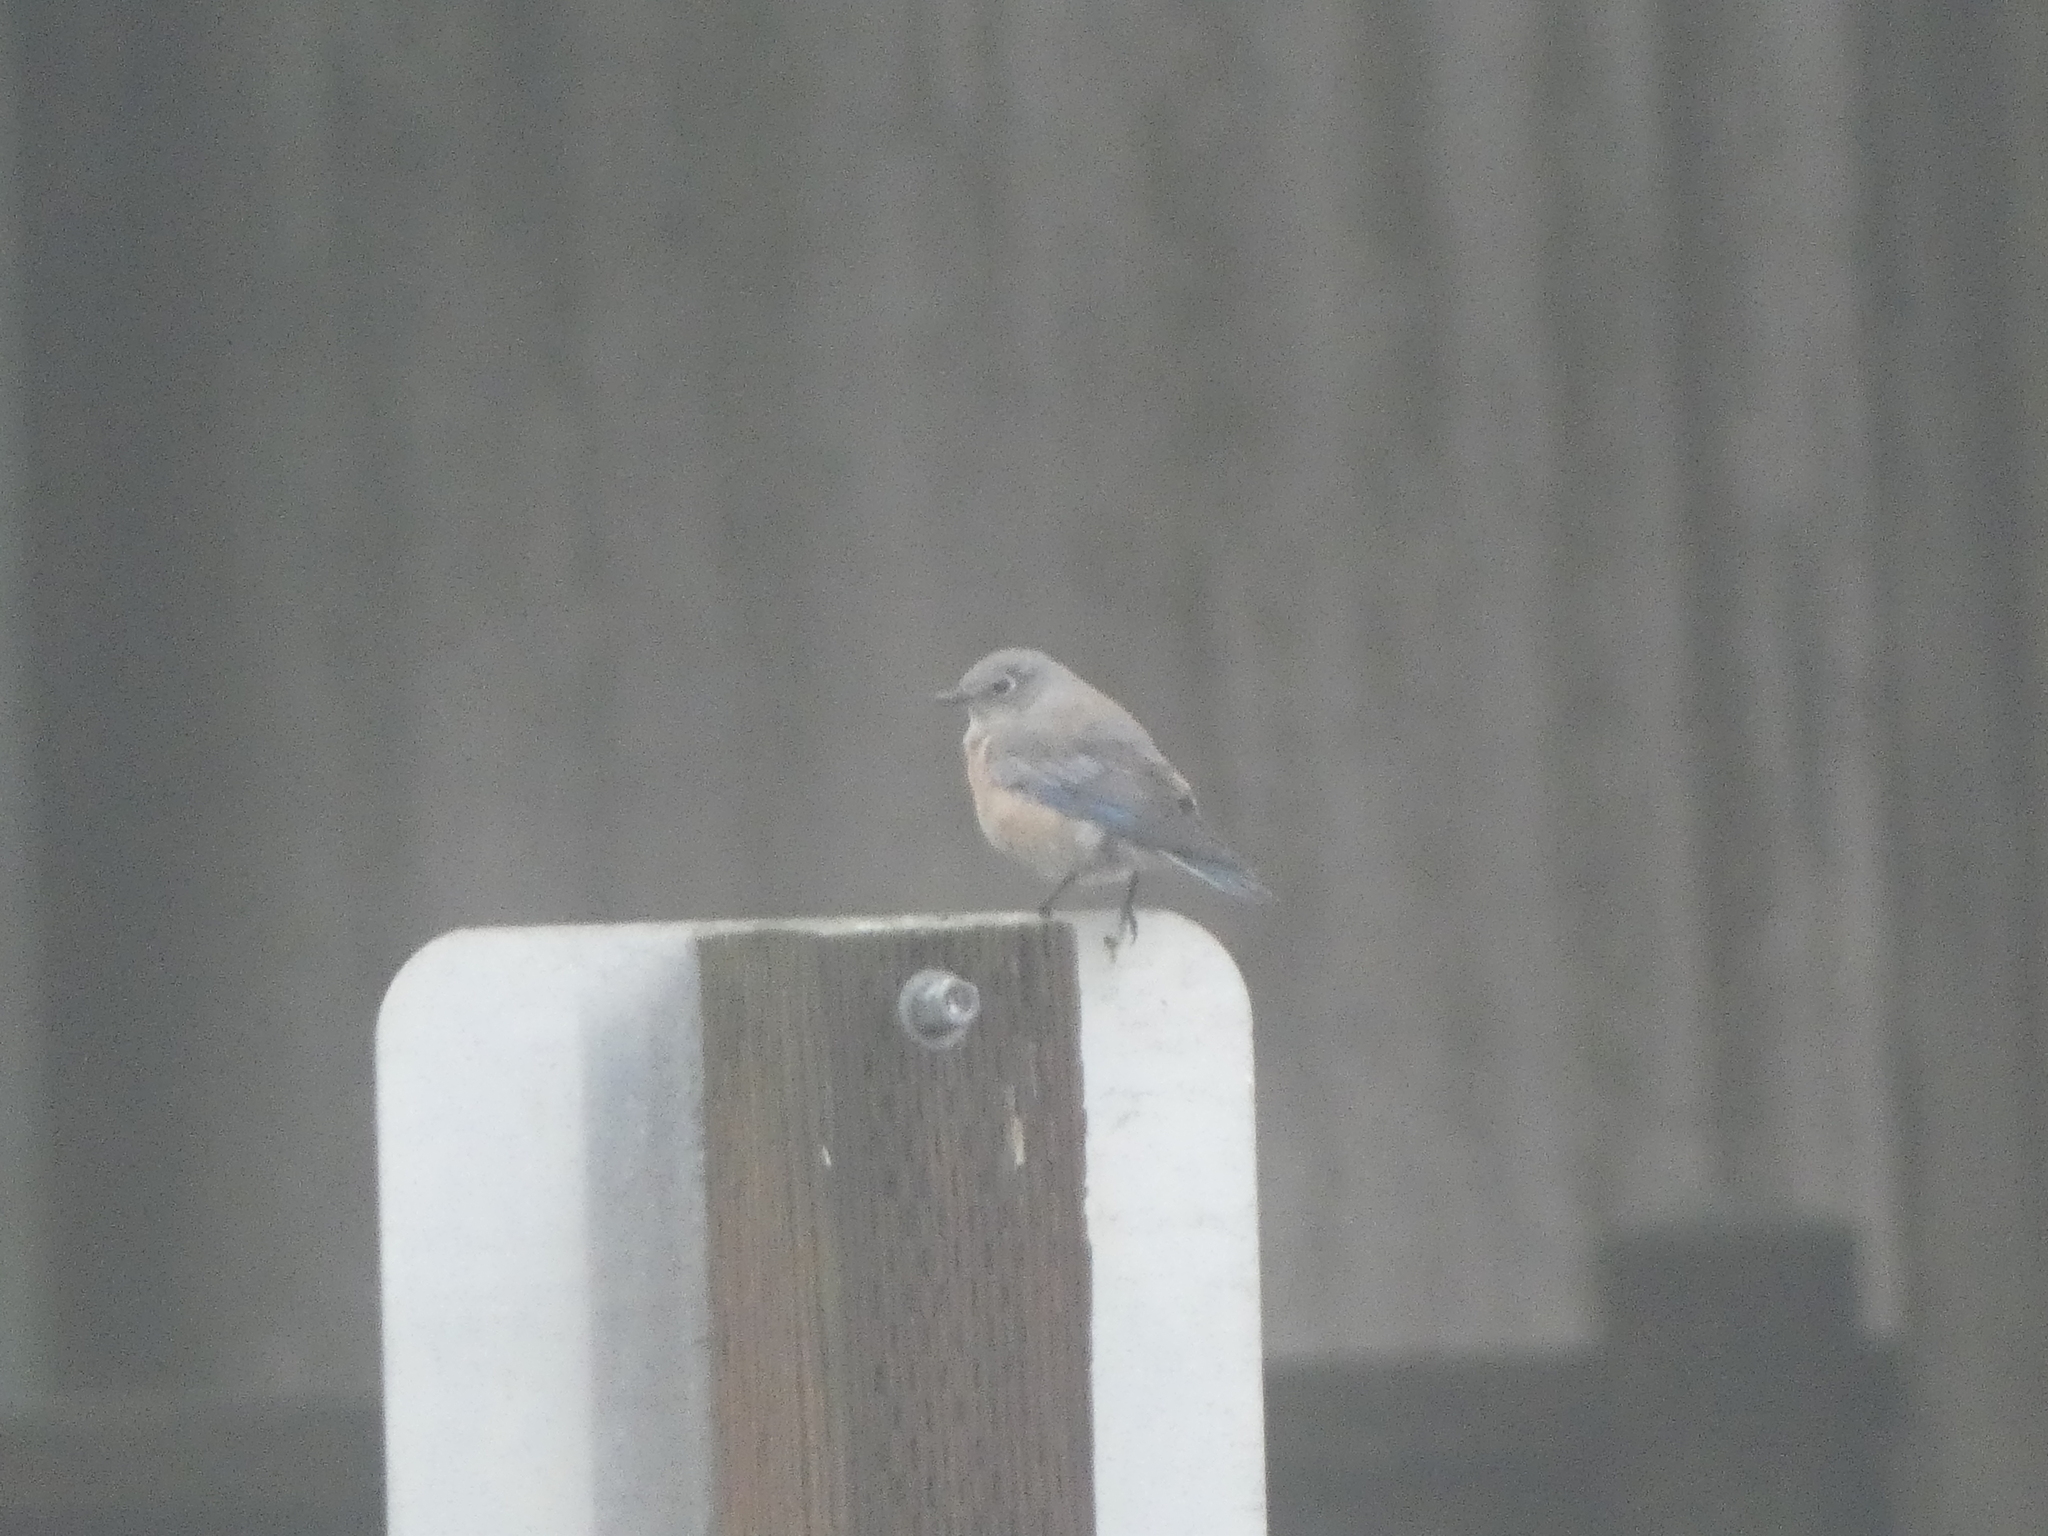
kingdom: Animalia
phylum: Chordata
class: Aves
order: Passeriformes
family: Turdidae
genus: Sialia
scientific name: Sialia mexicana
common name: Western bluebird
